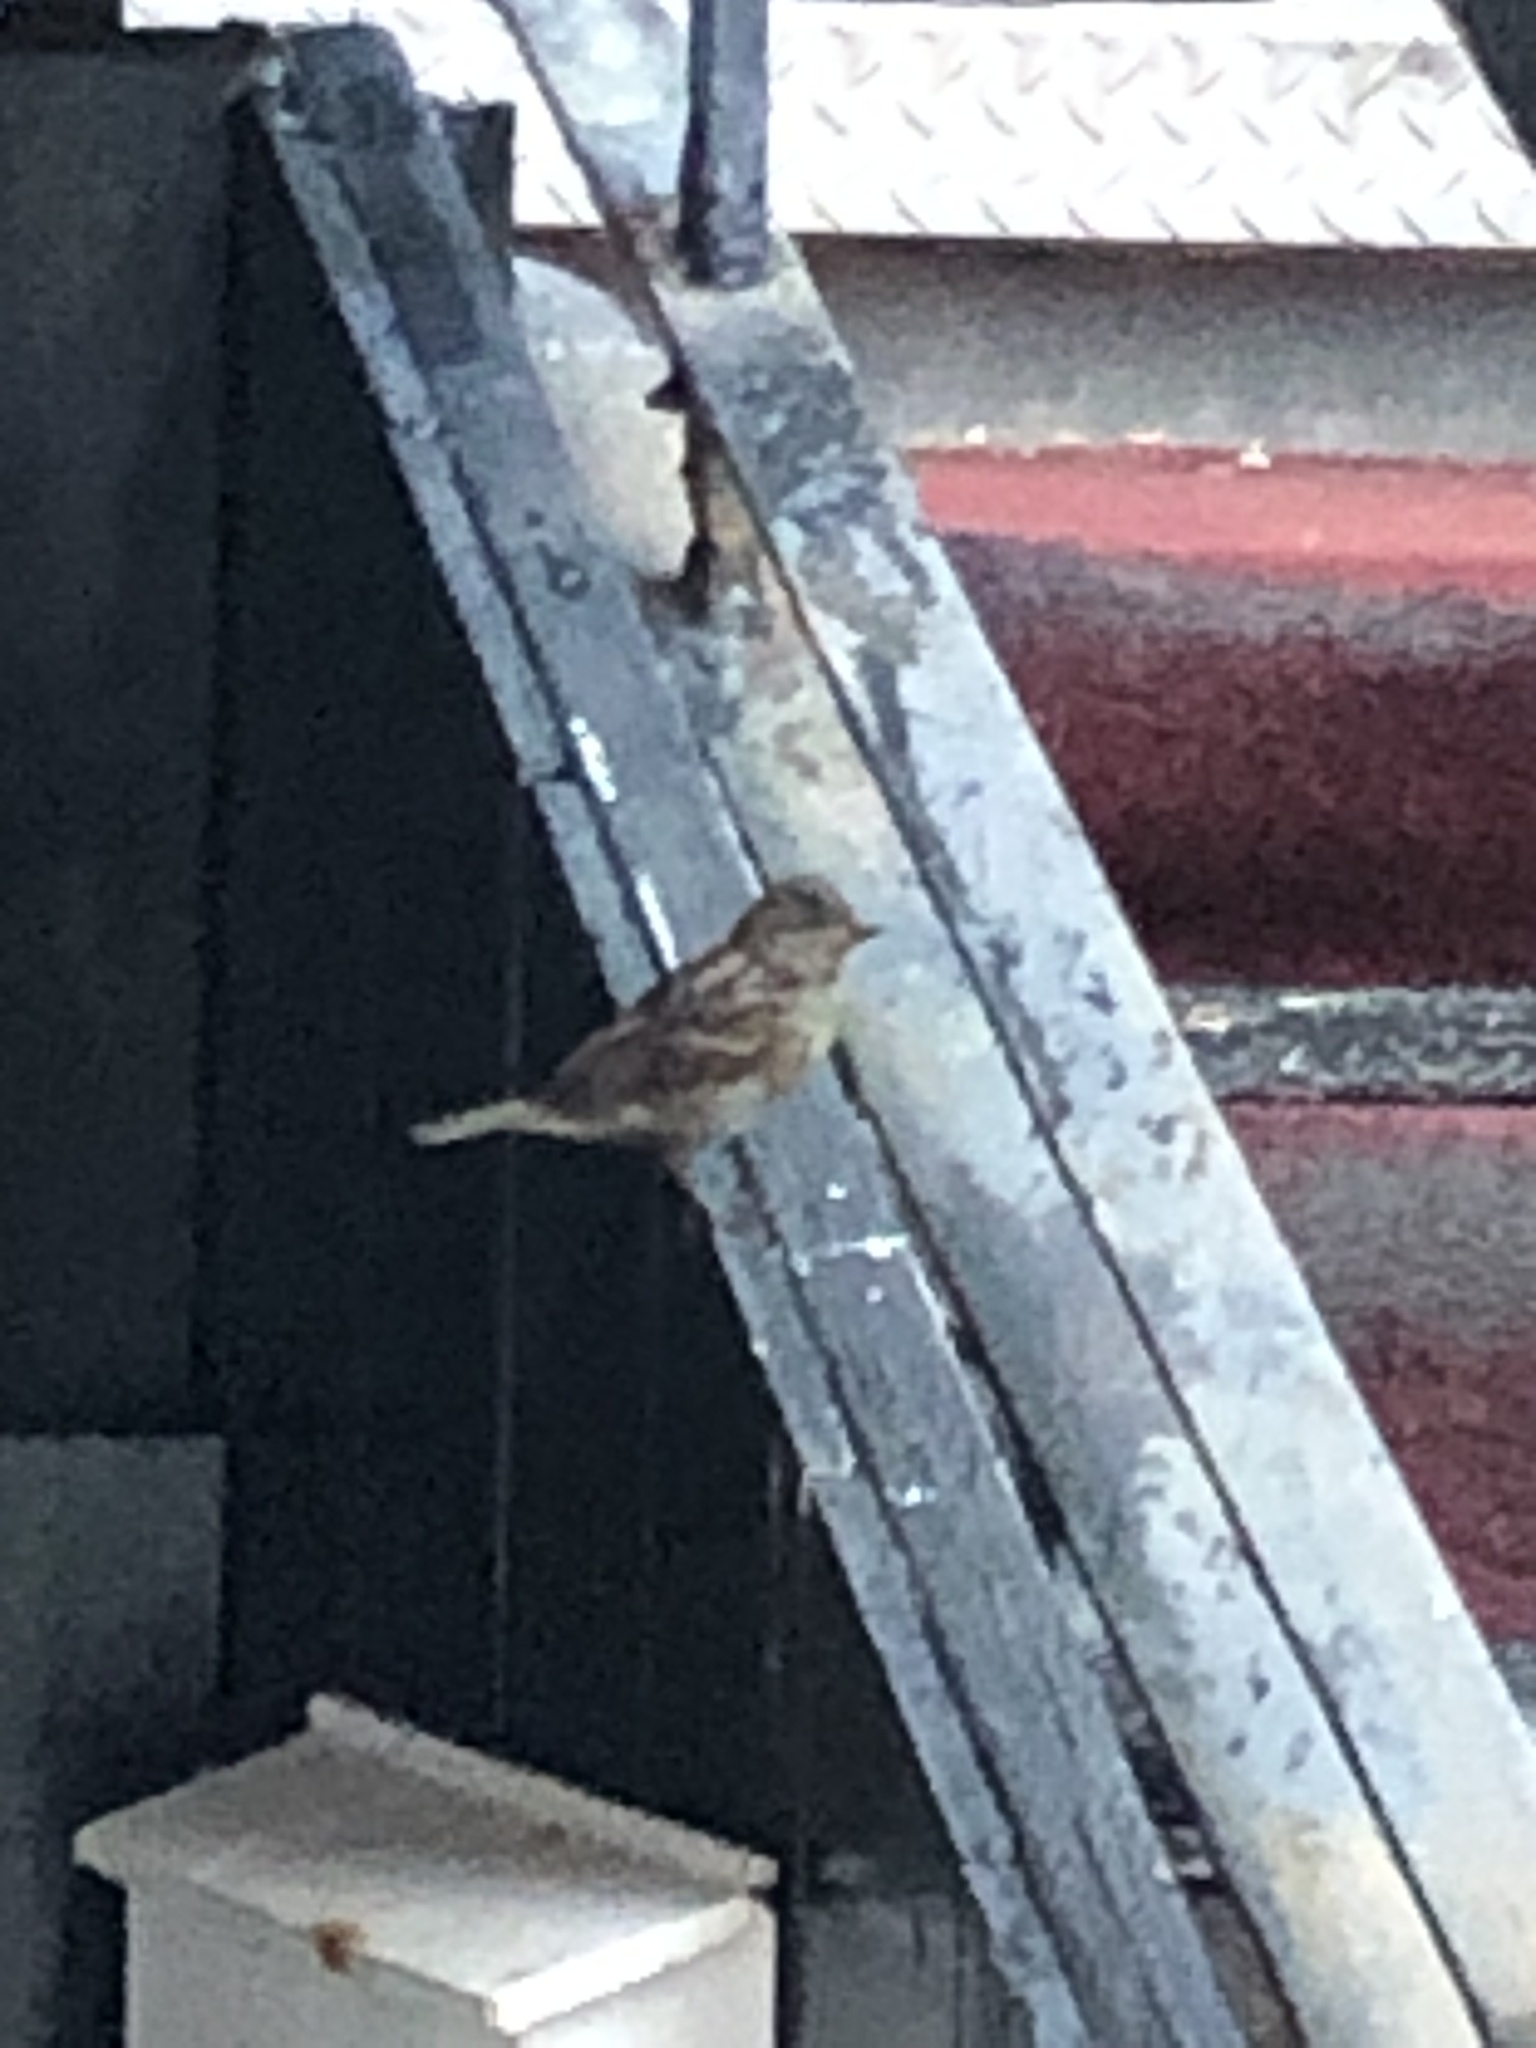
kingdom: Animalia
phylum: Chordata
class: Aves
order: Passeriformes
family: Passeridae
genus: Passer
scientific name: Passer domesticus
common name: House sparrow
